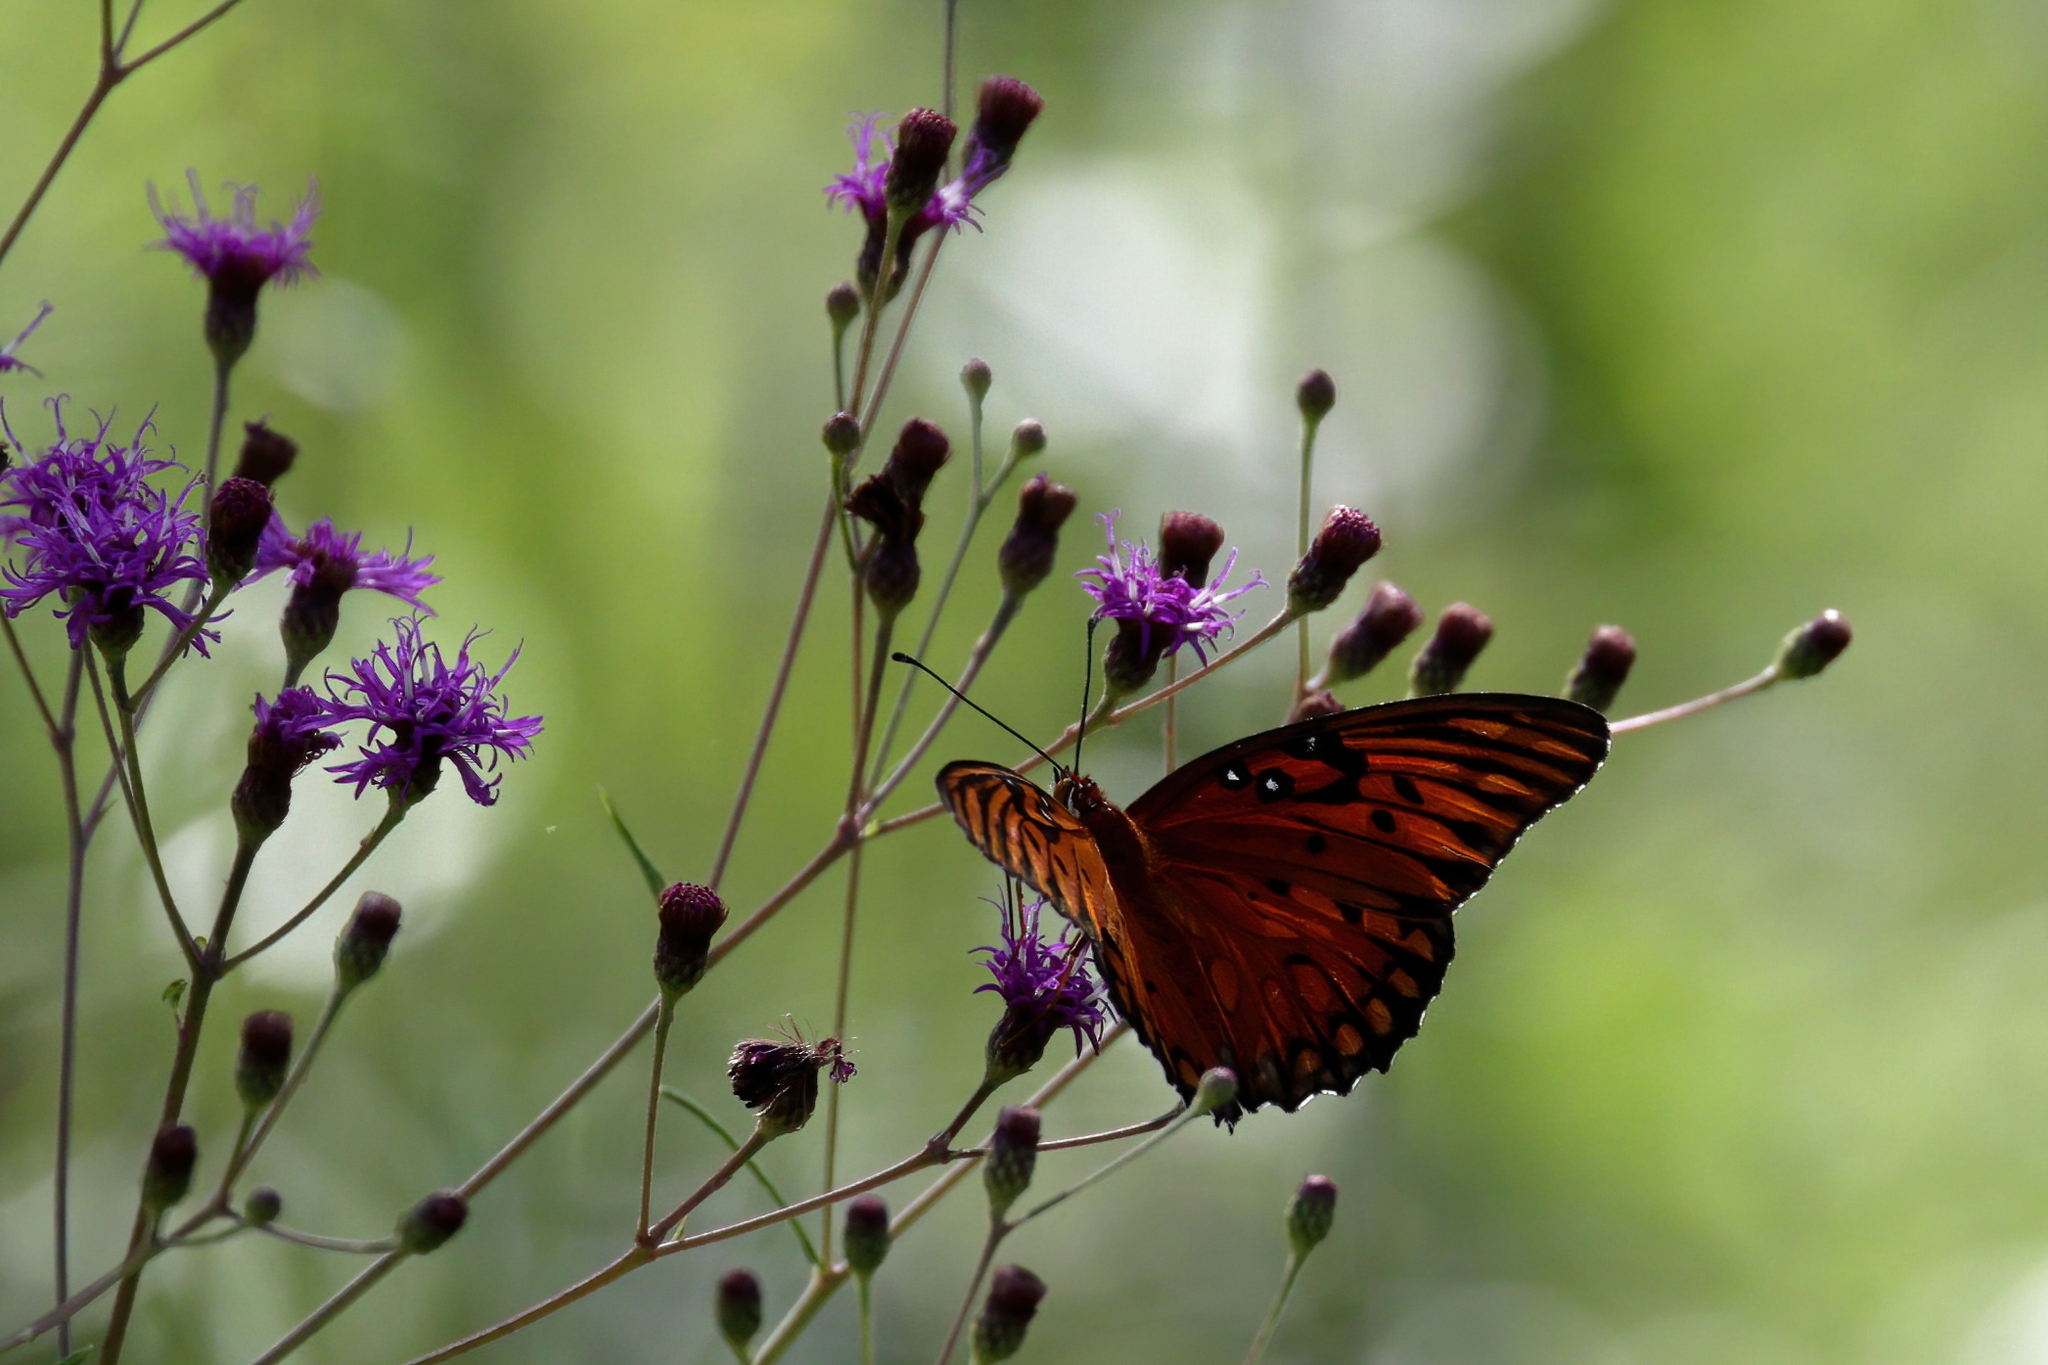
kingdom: Animalia
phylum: Arthropoda
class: Insecta
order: Lepidoptera
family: Nymphalidae
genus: Dione
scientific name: Dione vanillae
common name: Gulf fritillary
